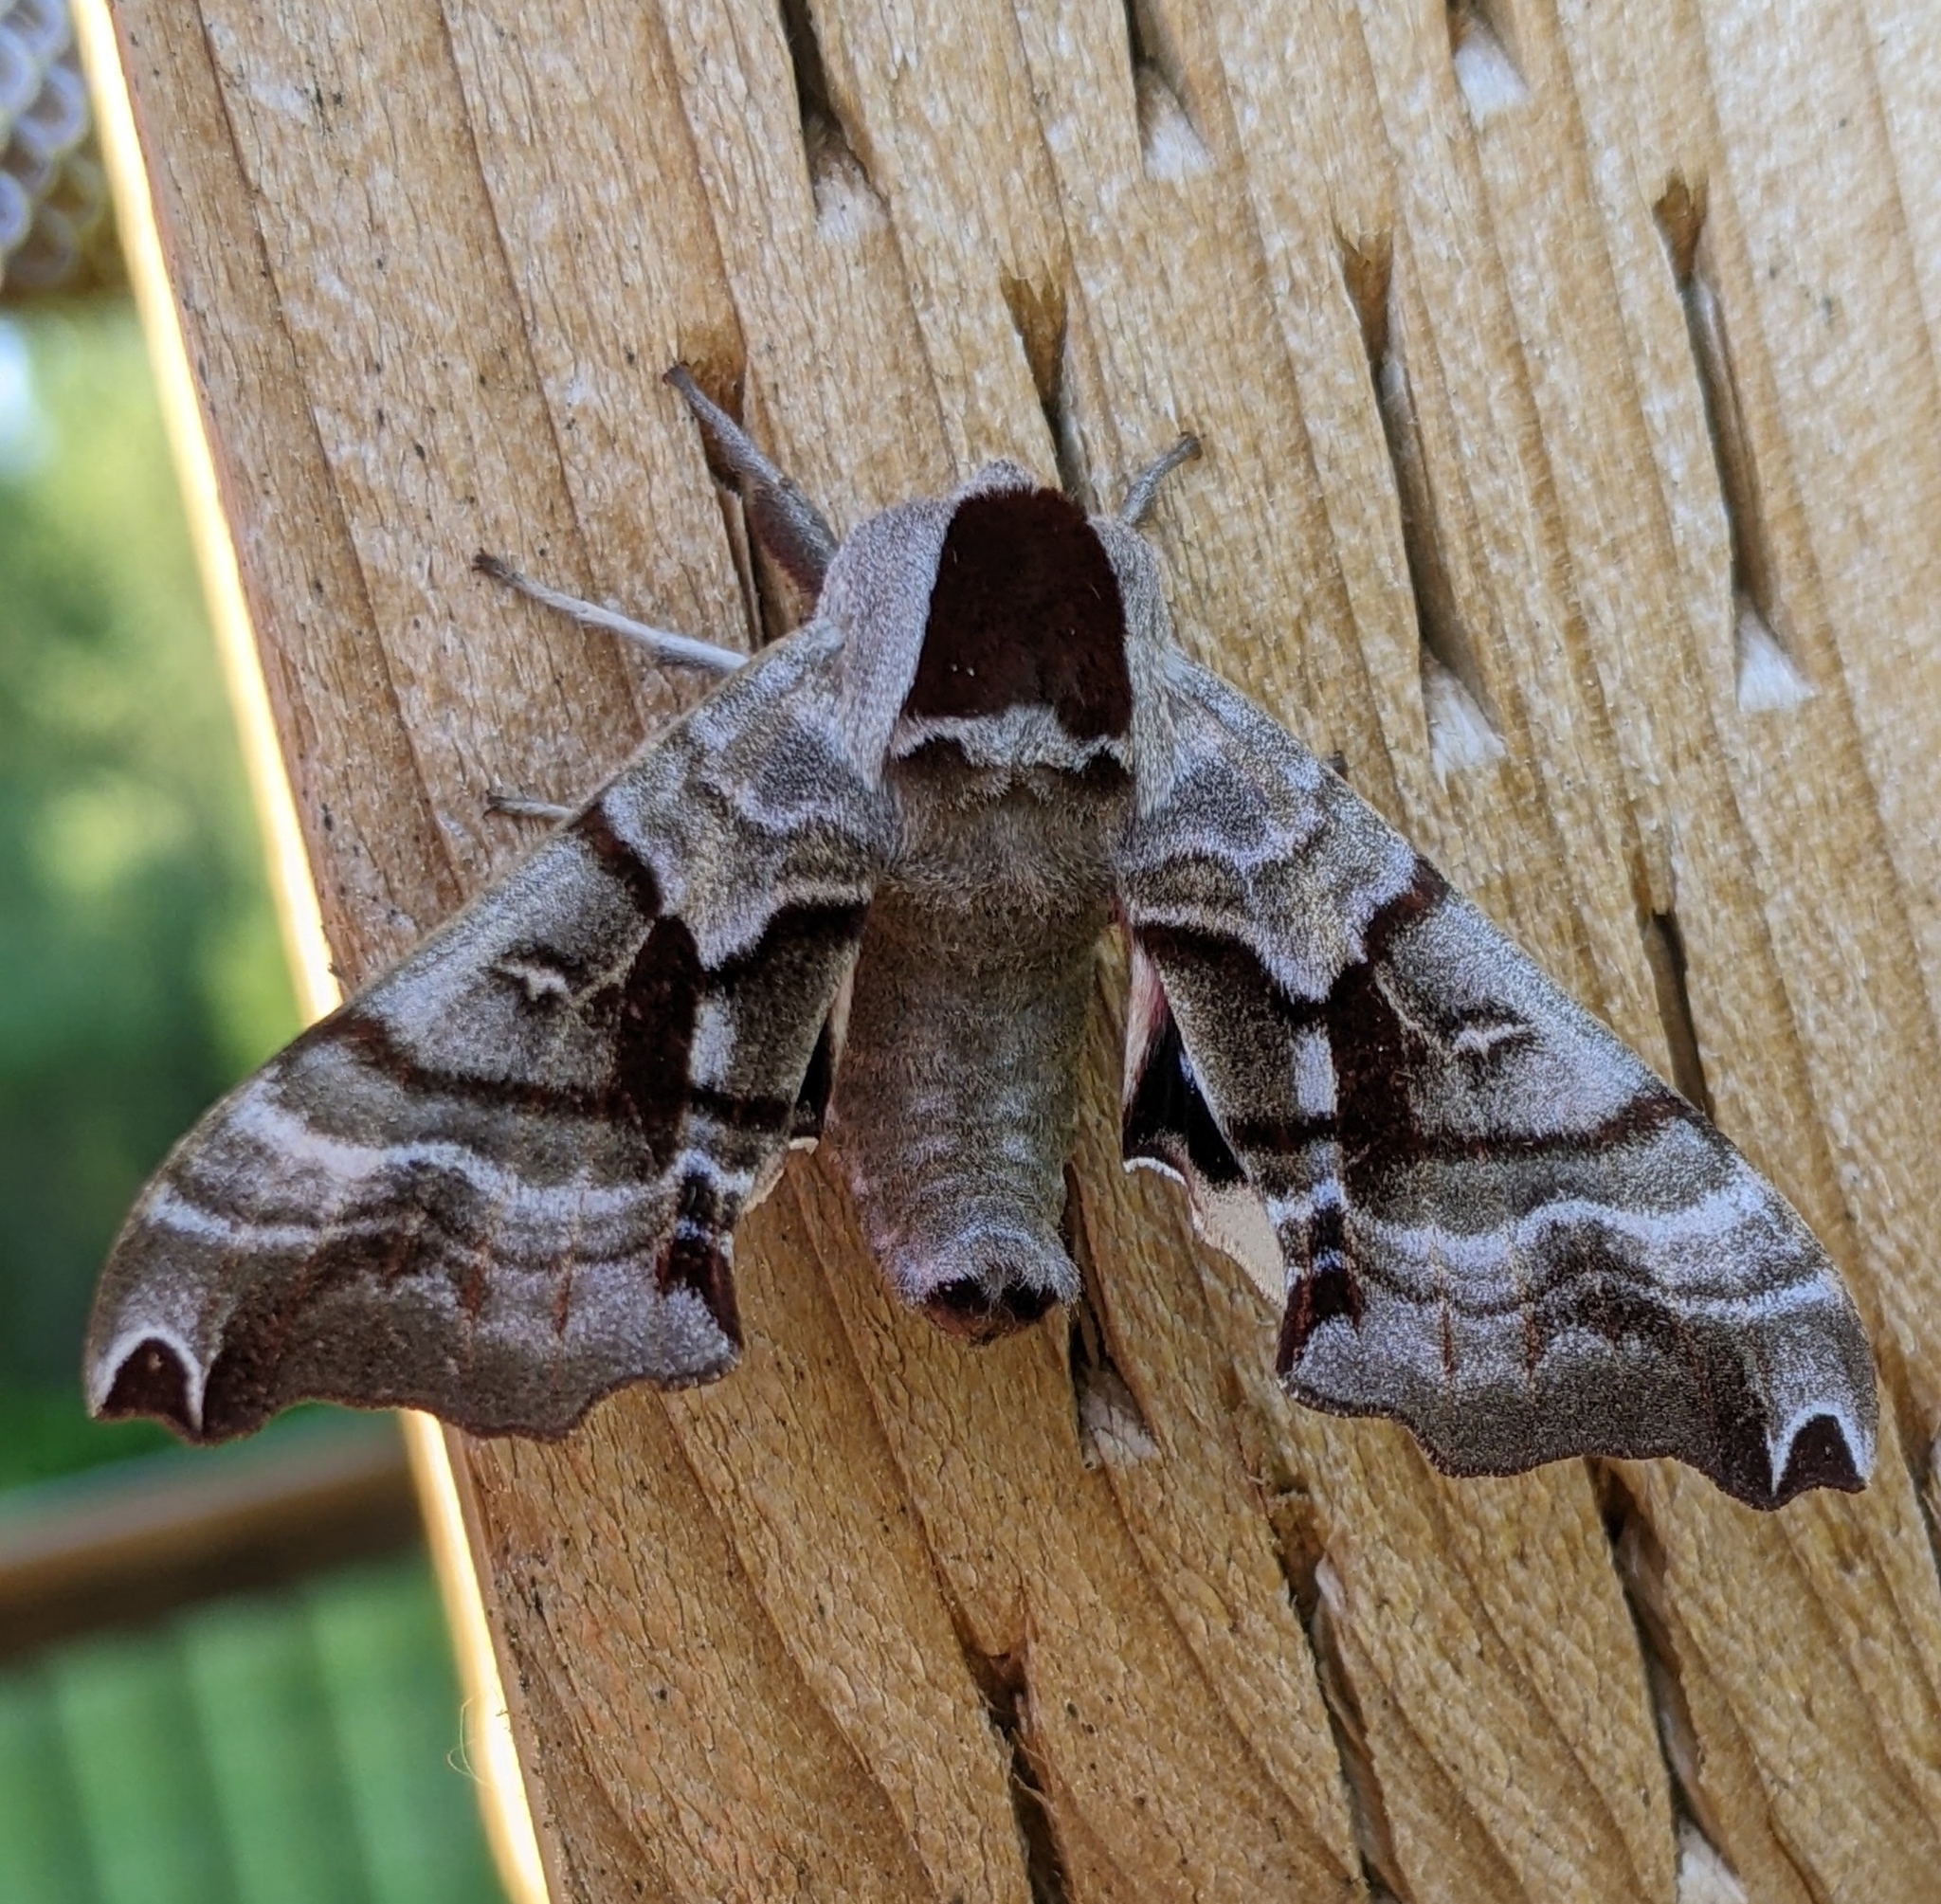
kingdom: Animalia
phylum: Arthropoda
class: Insecta
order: Lepidoptera
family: Sphingidae
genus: Smerinthus
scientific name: Smerinthus jamaicensis
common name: Twin spotted sphinx
